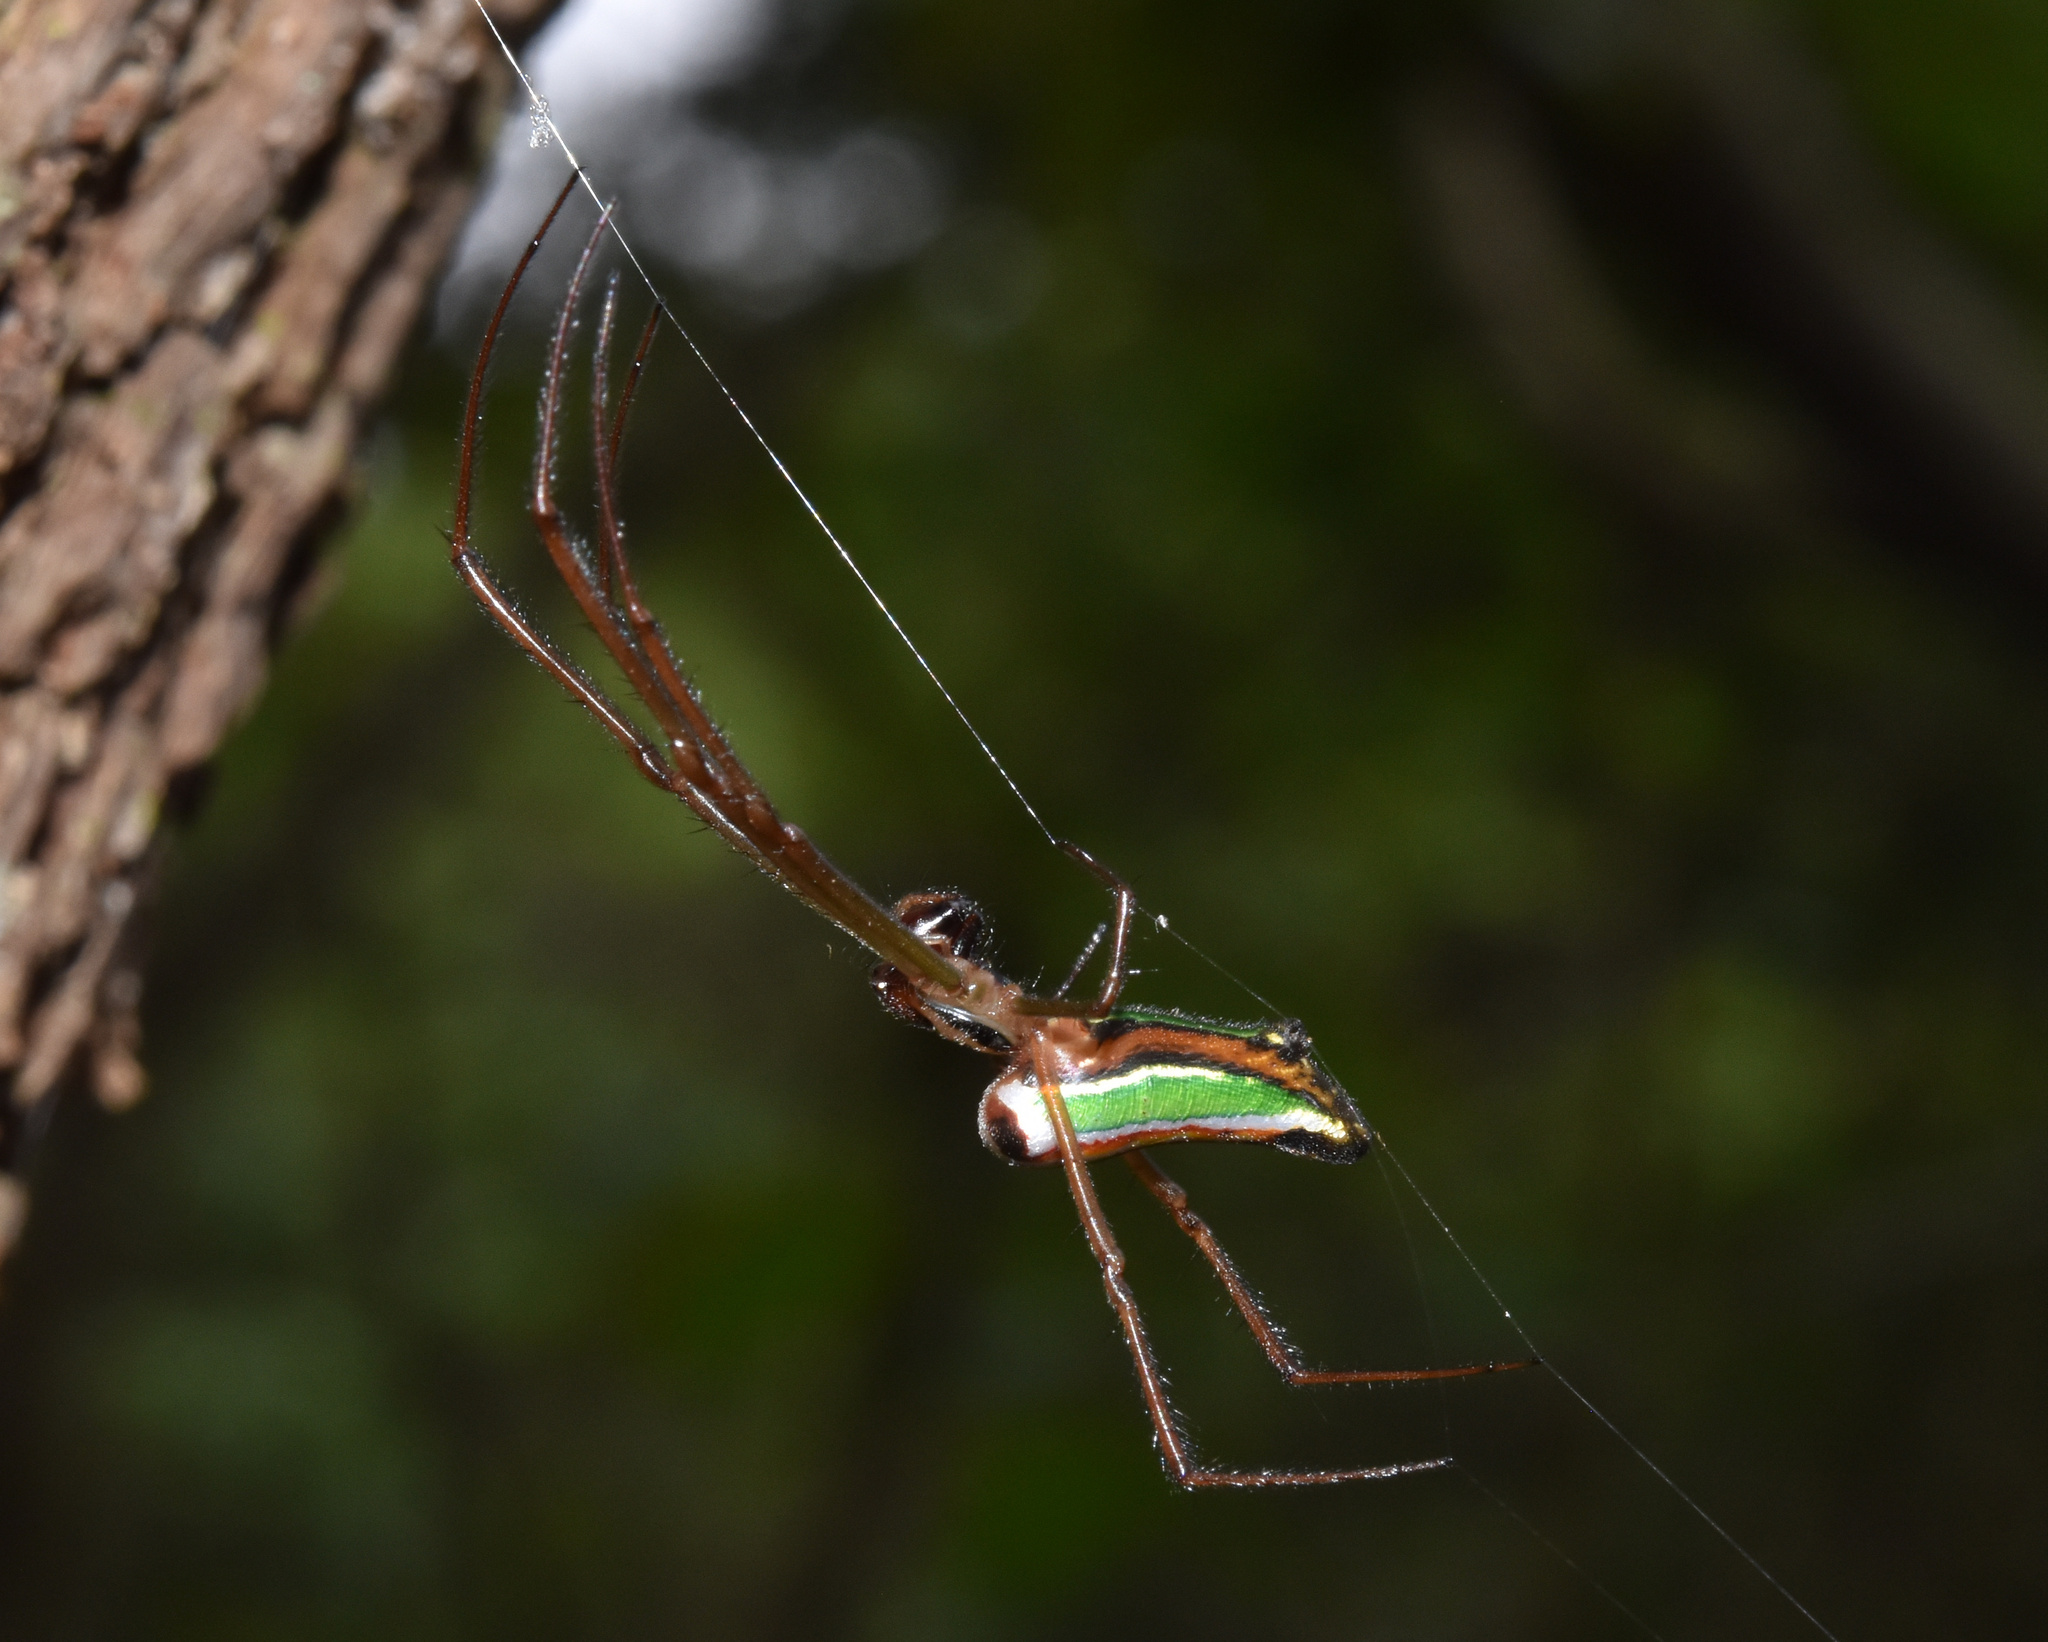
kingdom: Animalia
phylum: Arthropoda
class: Arachnida
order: Araneae
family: Tetragnathidae
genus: Leucauge
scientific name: Leucauge levanderi
